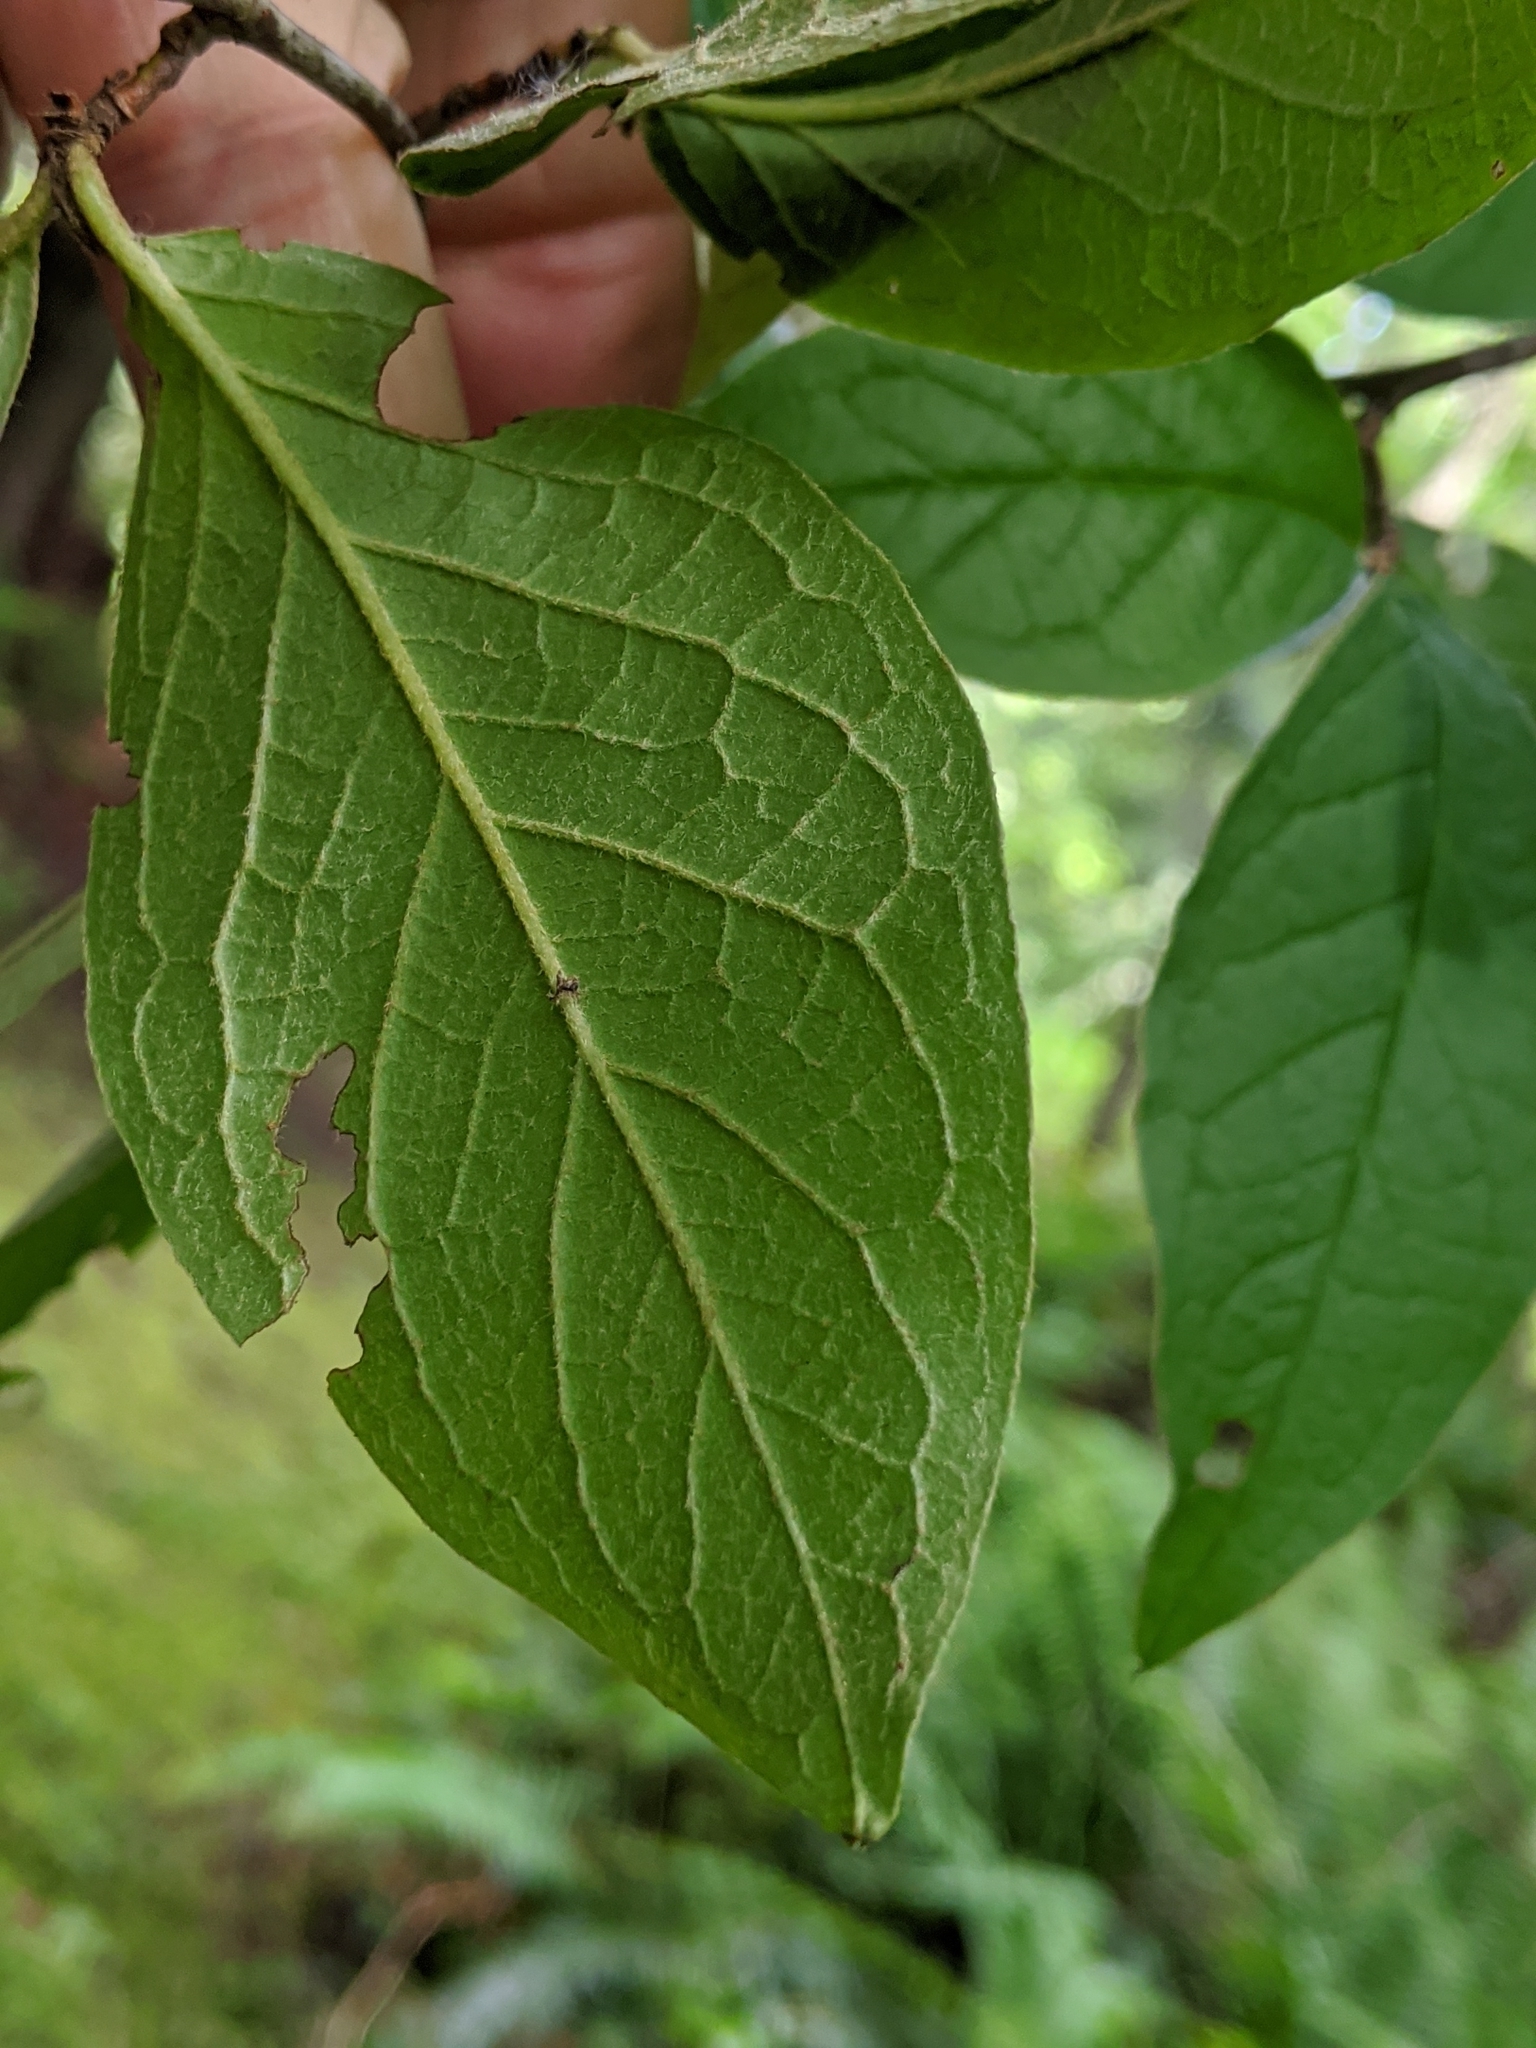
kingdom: Plantae
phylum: Tracheophyta
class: Magnoliopsida
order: Rosales
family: Rosaceae
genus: Cotoneaster
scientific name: Cotoneaster bullatus
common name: Hollyberry cotoneaster
